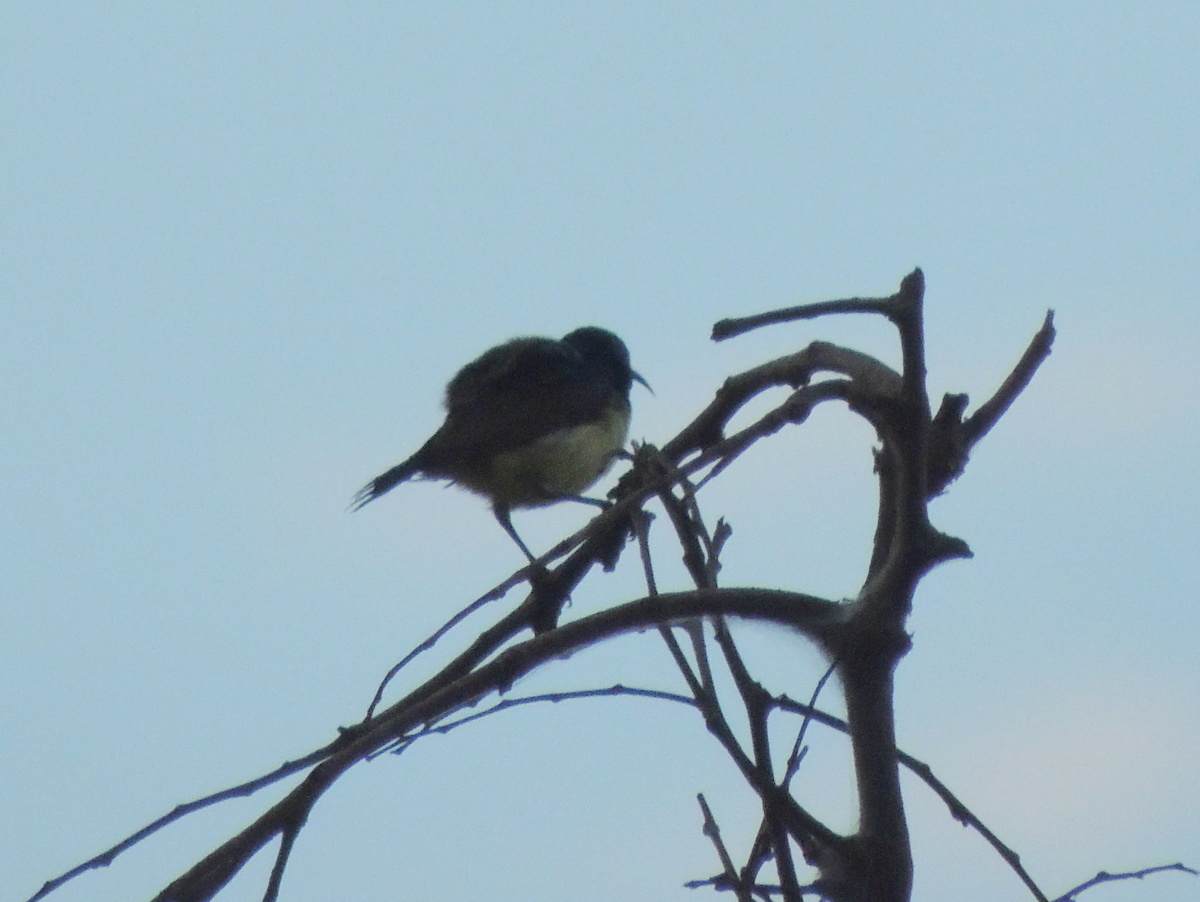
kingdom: Animalia
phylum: Chordata
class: Aves
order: Passeriformes
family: Nectariniidae
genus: Cinnyris
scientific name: Cinnyris venustus
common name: Variable sunbird
